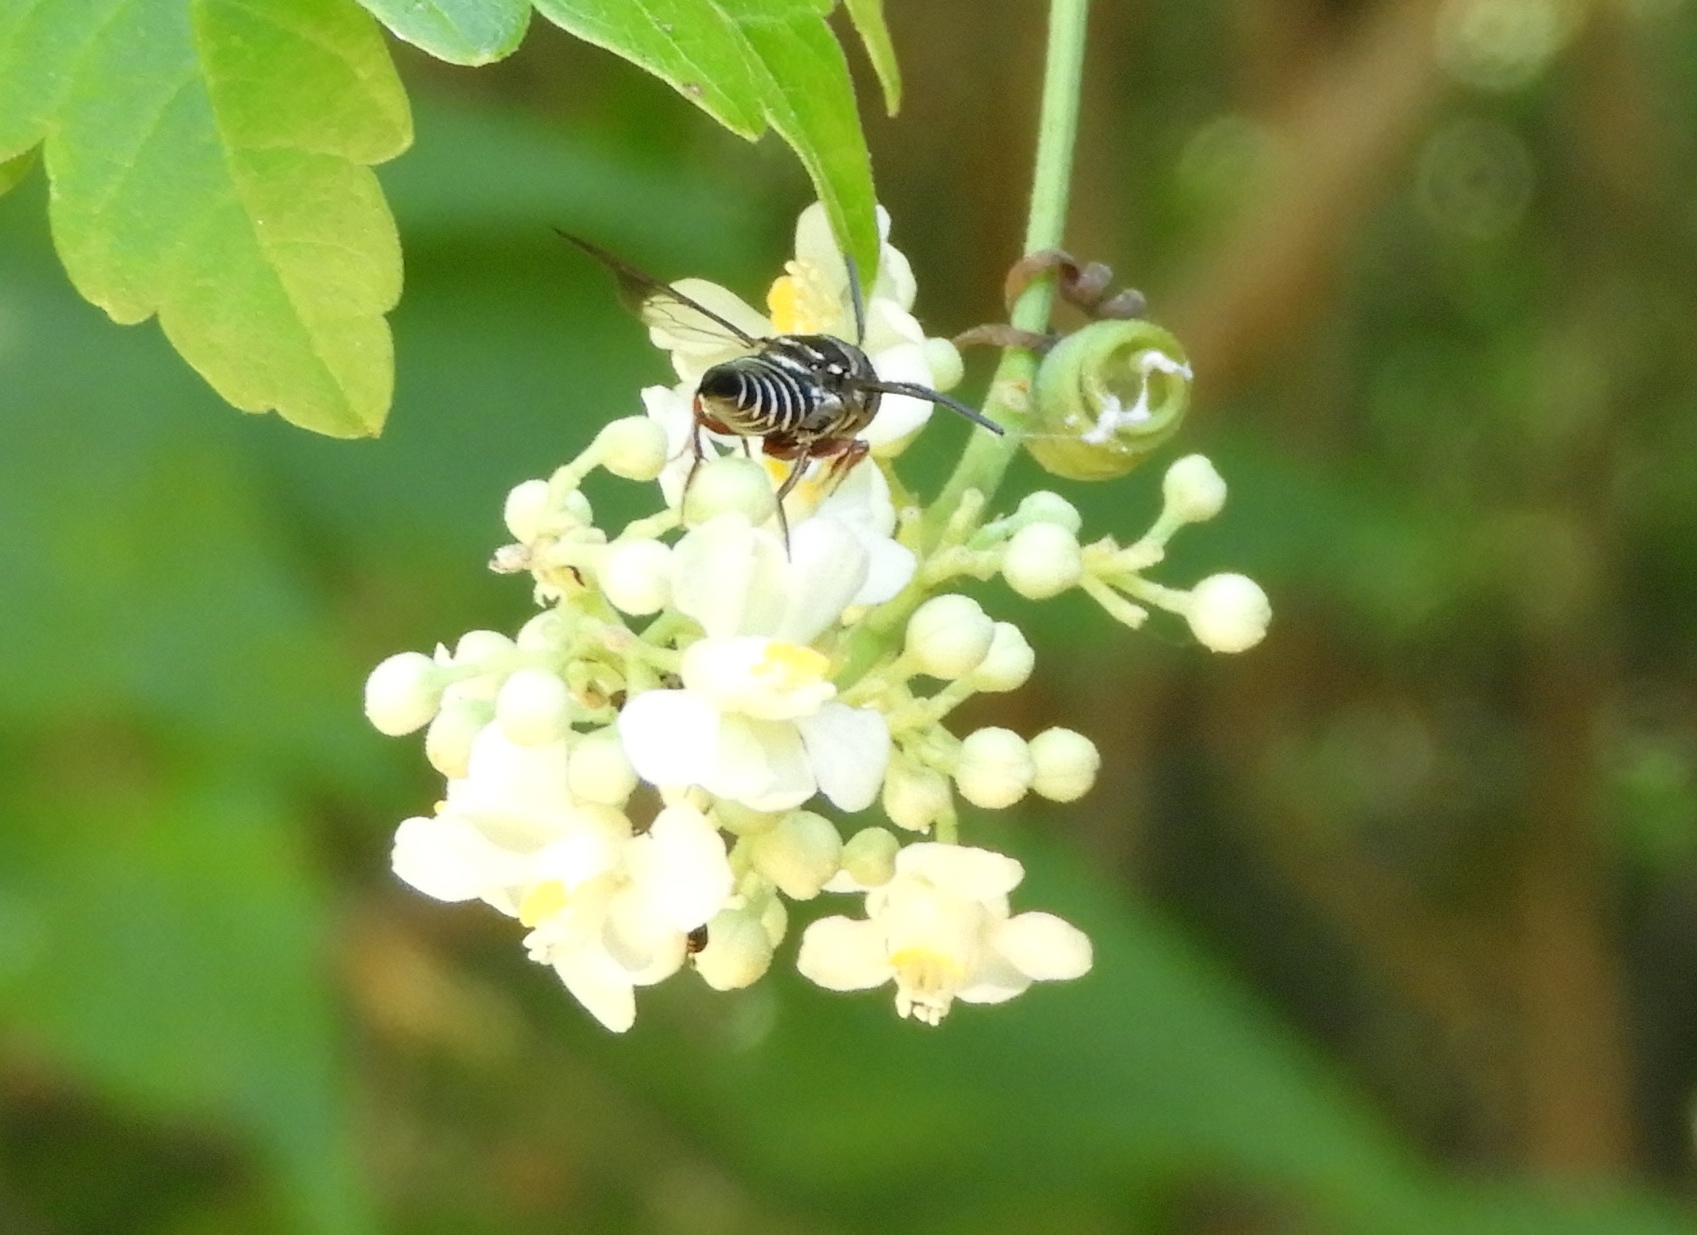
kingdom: Animalia
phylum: Arthropoda
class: Insecta
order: Hymenoptera
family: Megachilidae
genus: Coelioxys
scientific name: Coelioxys
